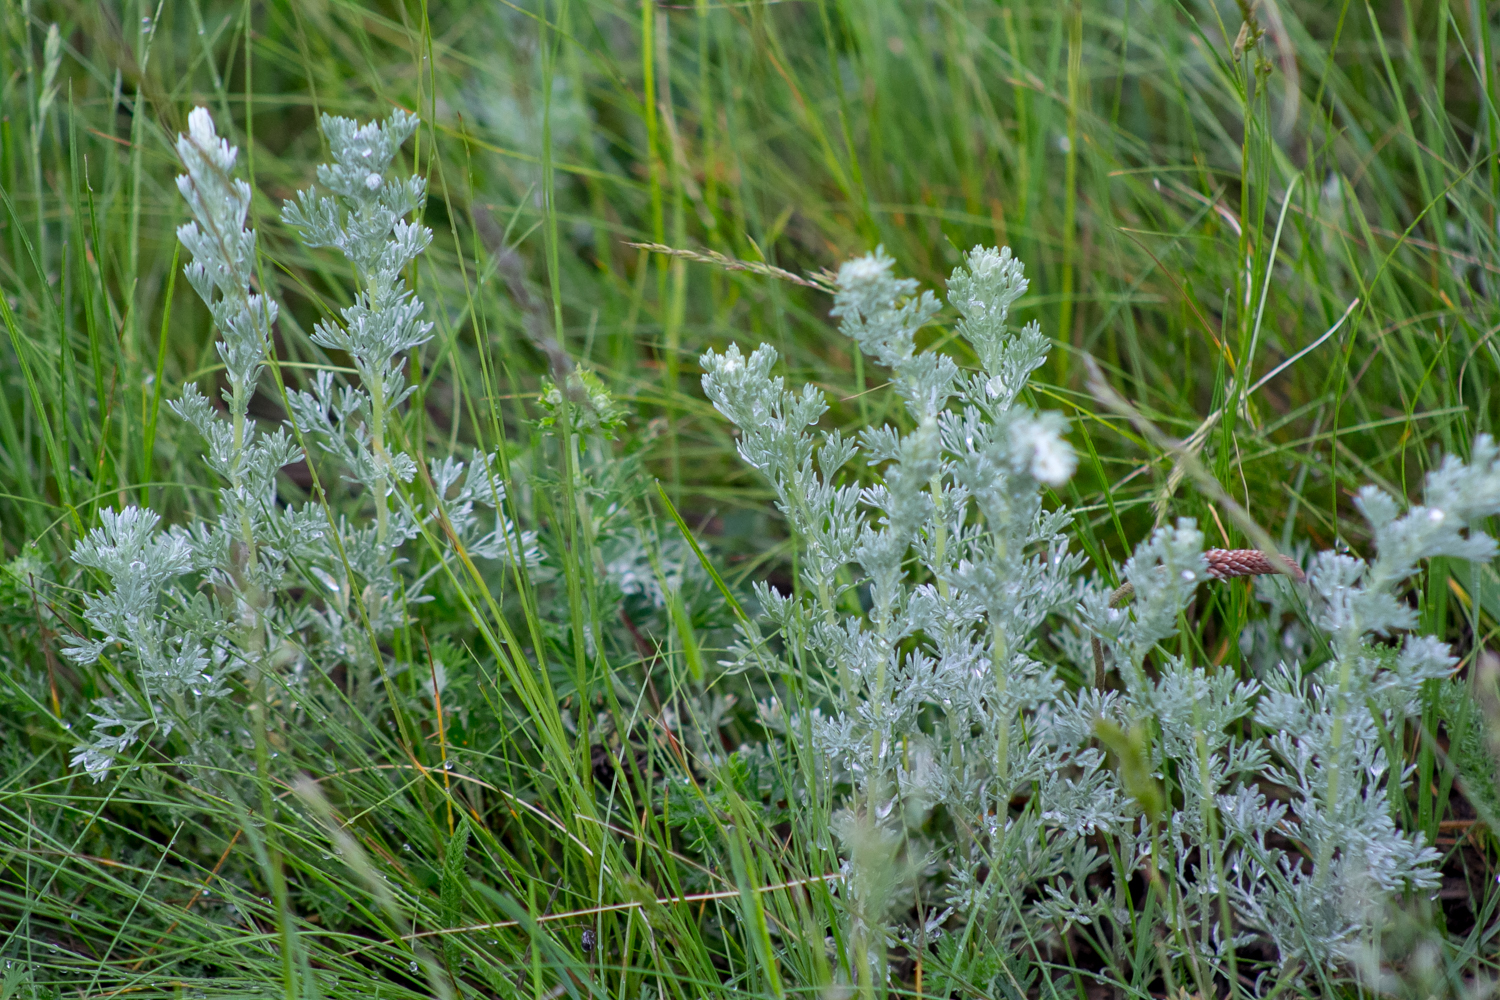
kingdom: Plantae
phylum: Tracheophyta
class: Magnoliopsida
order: Asterales
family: Asteraceae
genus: Artemisia
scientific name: Artemisia austriaca
